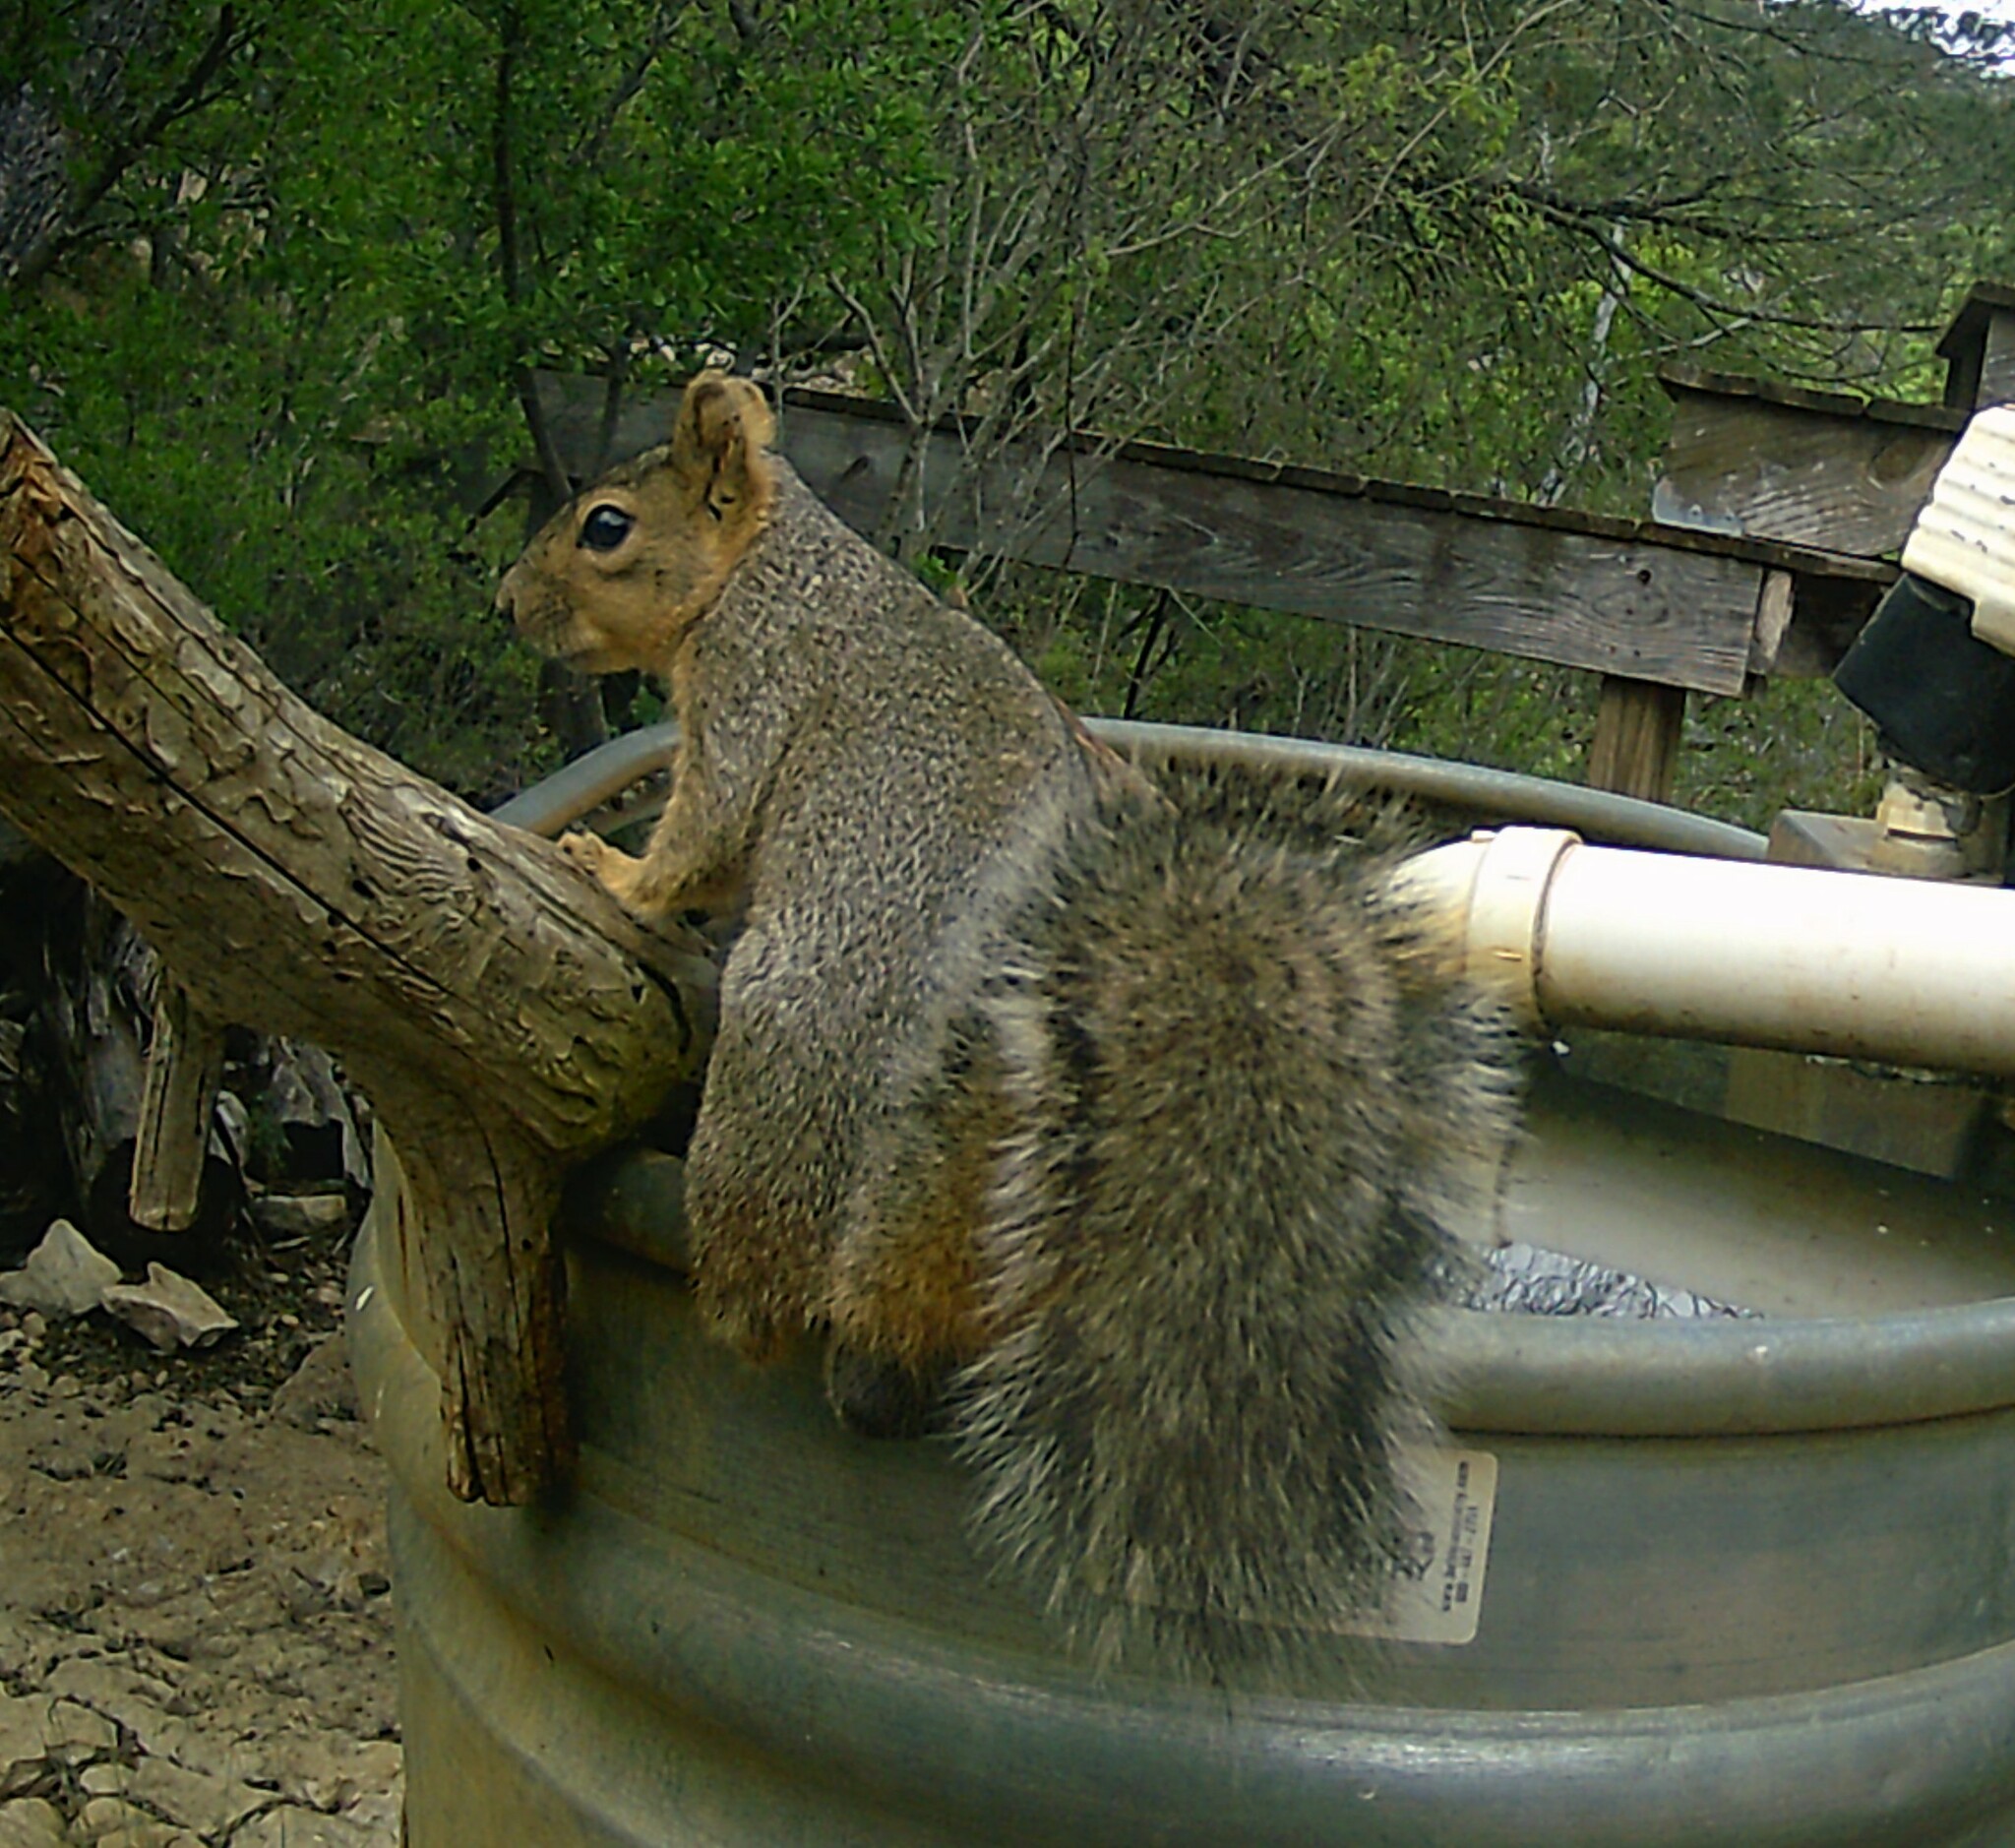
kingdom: Animalia
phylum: Chordata
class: Mammalia
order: Rodentia
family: Sciuridae
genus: Sciurus
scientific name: Sciurus niger
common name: Fox squirrel
